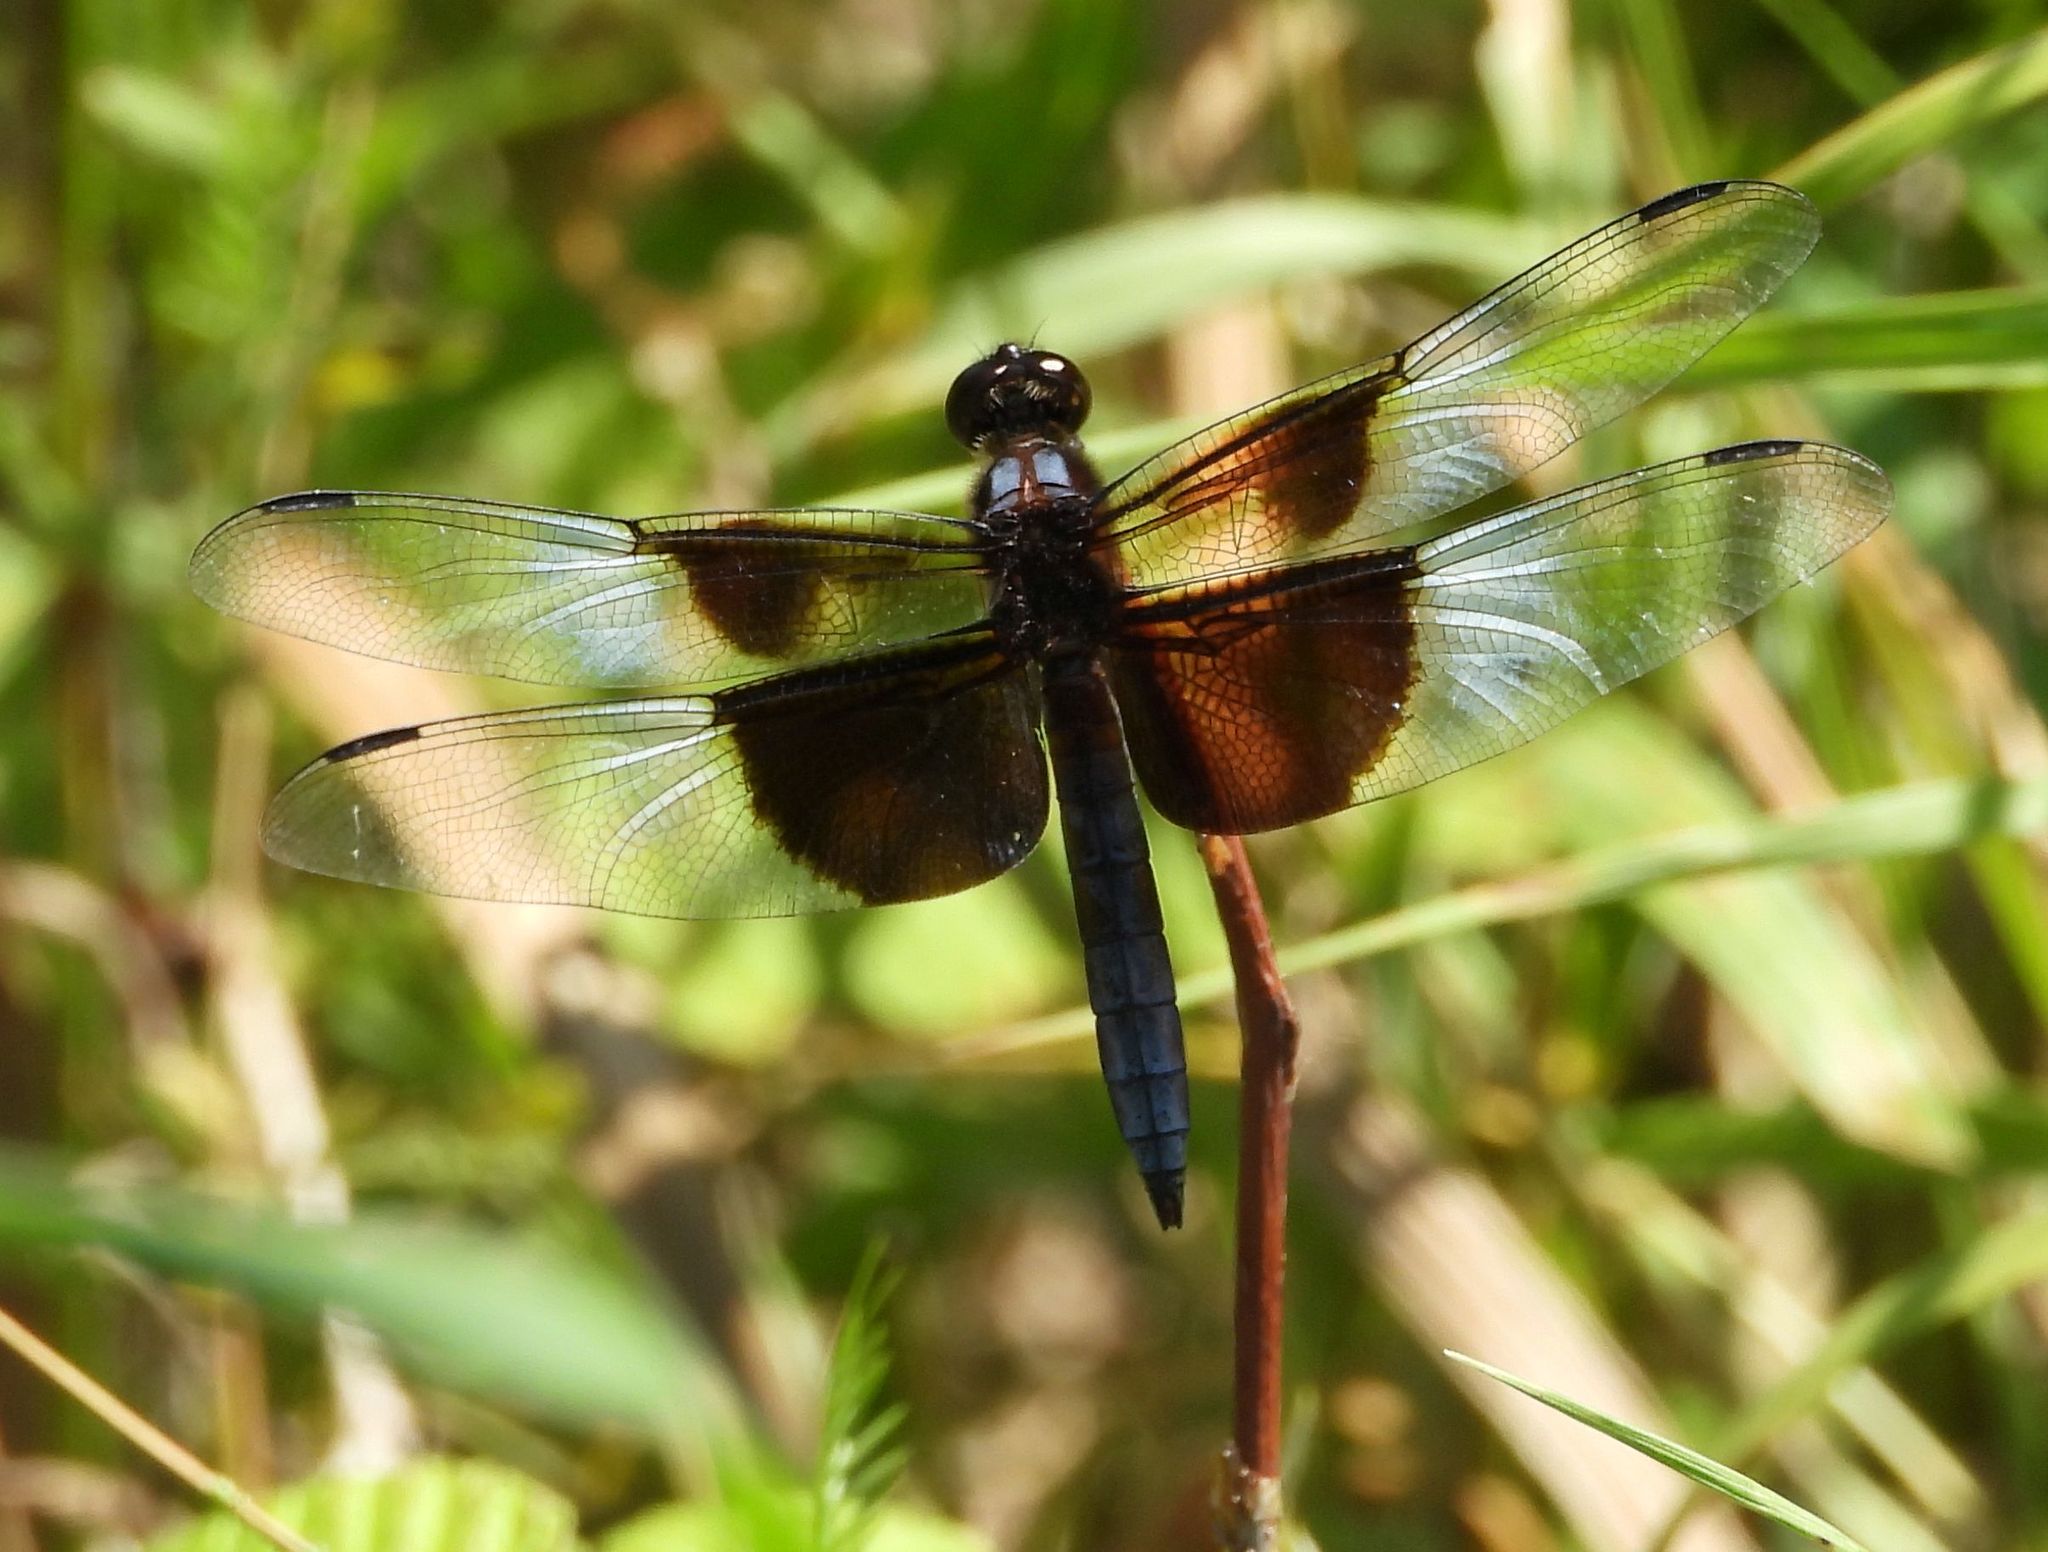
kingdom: Animalia
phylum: Arthropoda
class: Insecta
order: Odonata
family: Libellulidae
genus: Libellula
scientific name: Libellula luctuosa
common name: Widow skimmer
